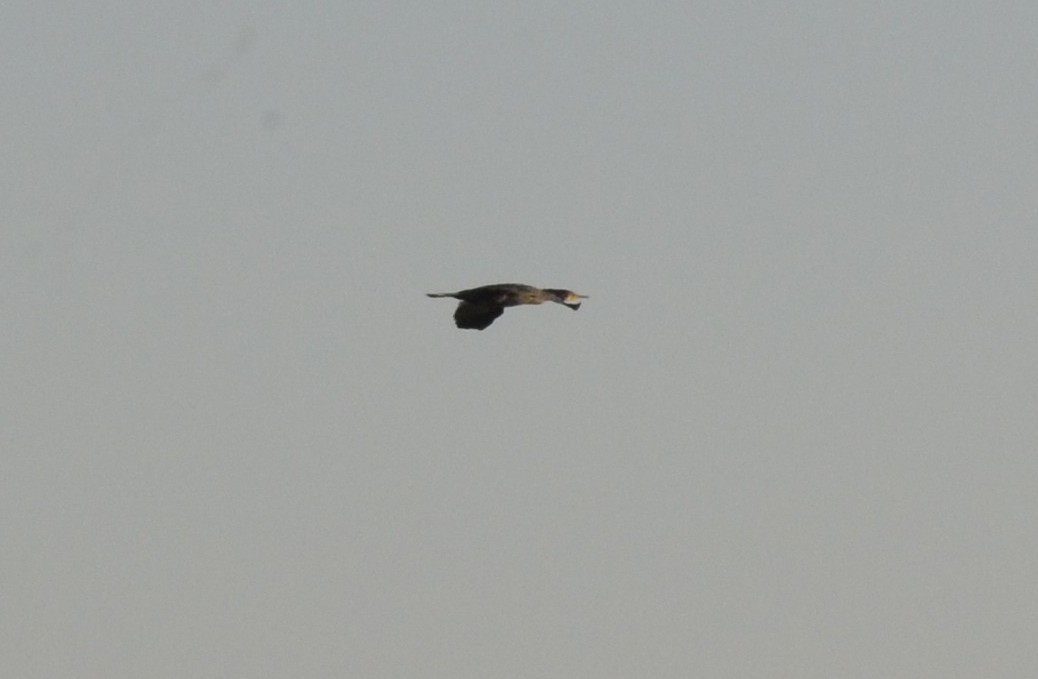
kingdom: Animalia
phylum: Chordata
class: Aves
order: Suliformes
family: Phalacrocoracidae
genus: Phalacrocorax
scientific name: Phalacrocorax fuscicollis
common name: Indian cormorant
